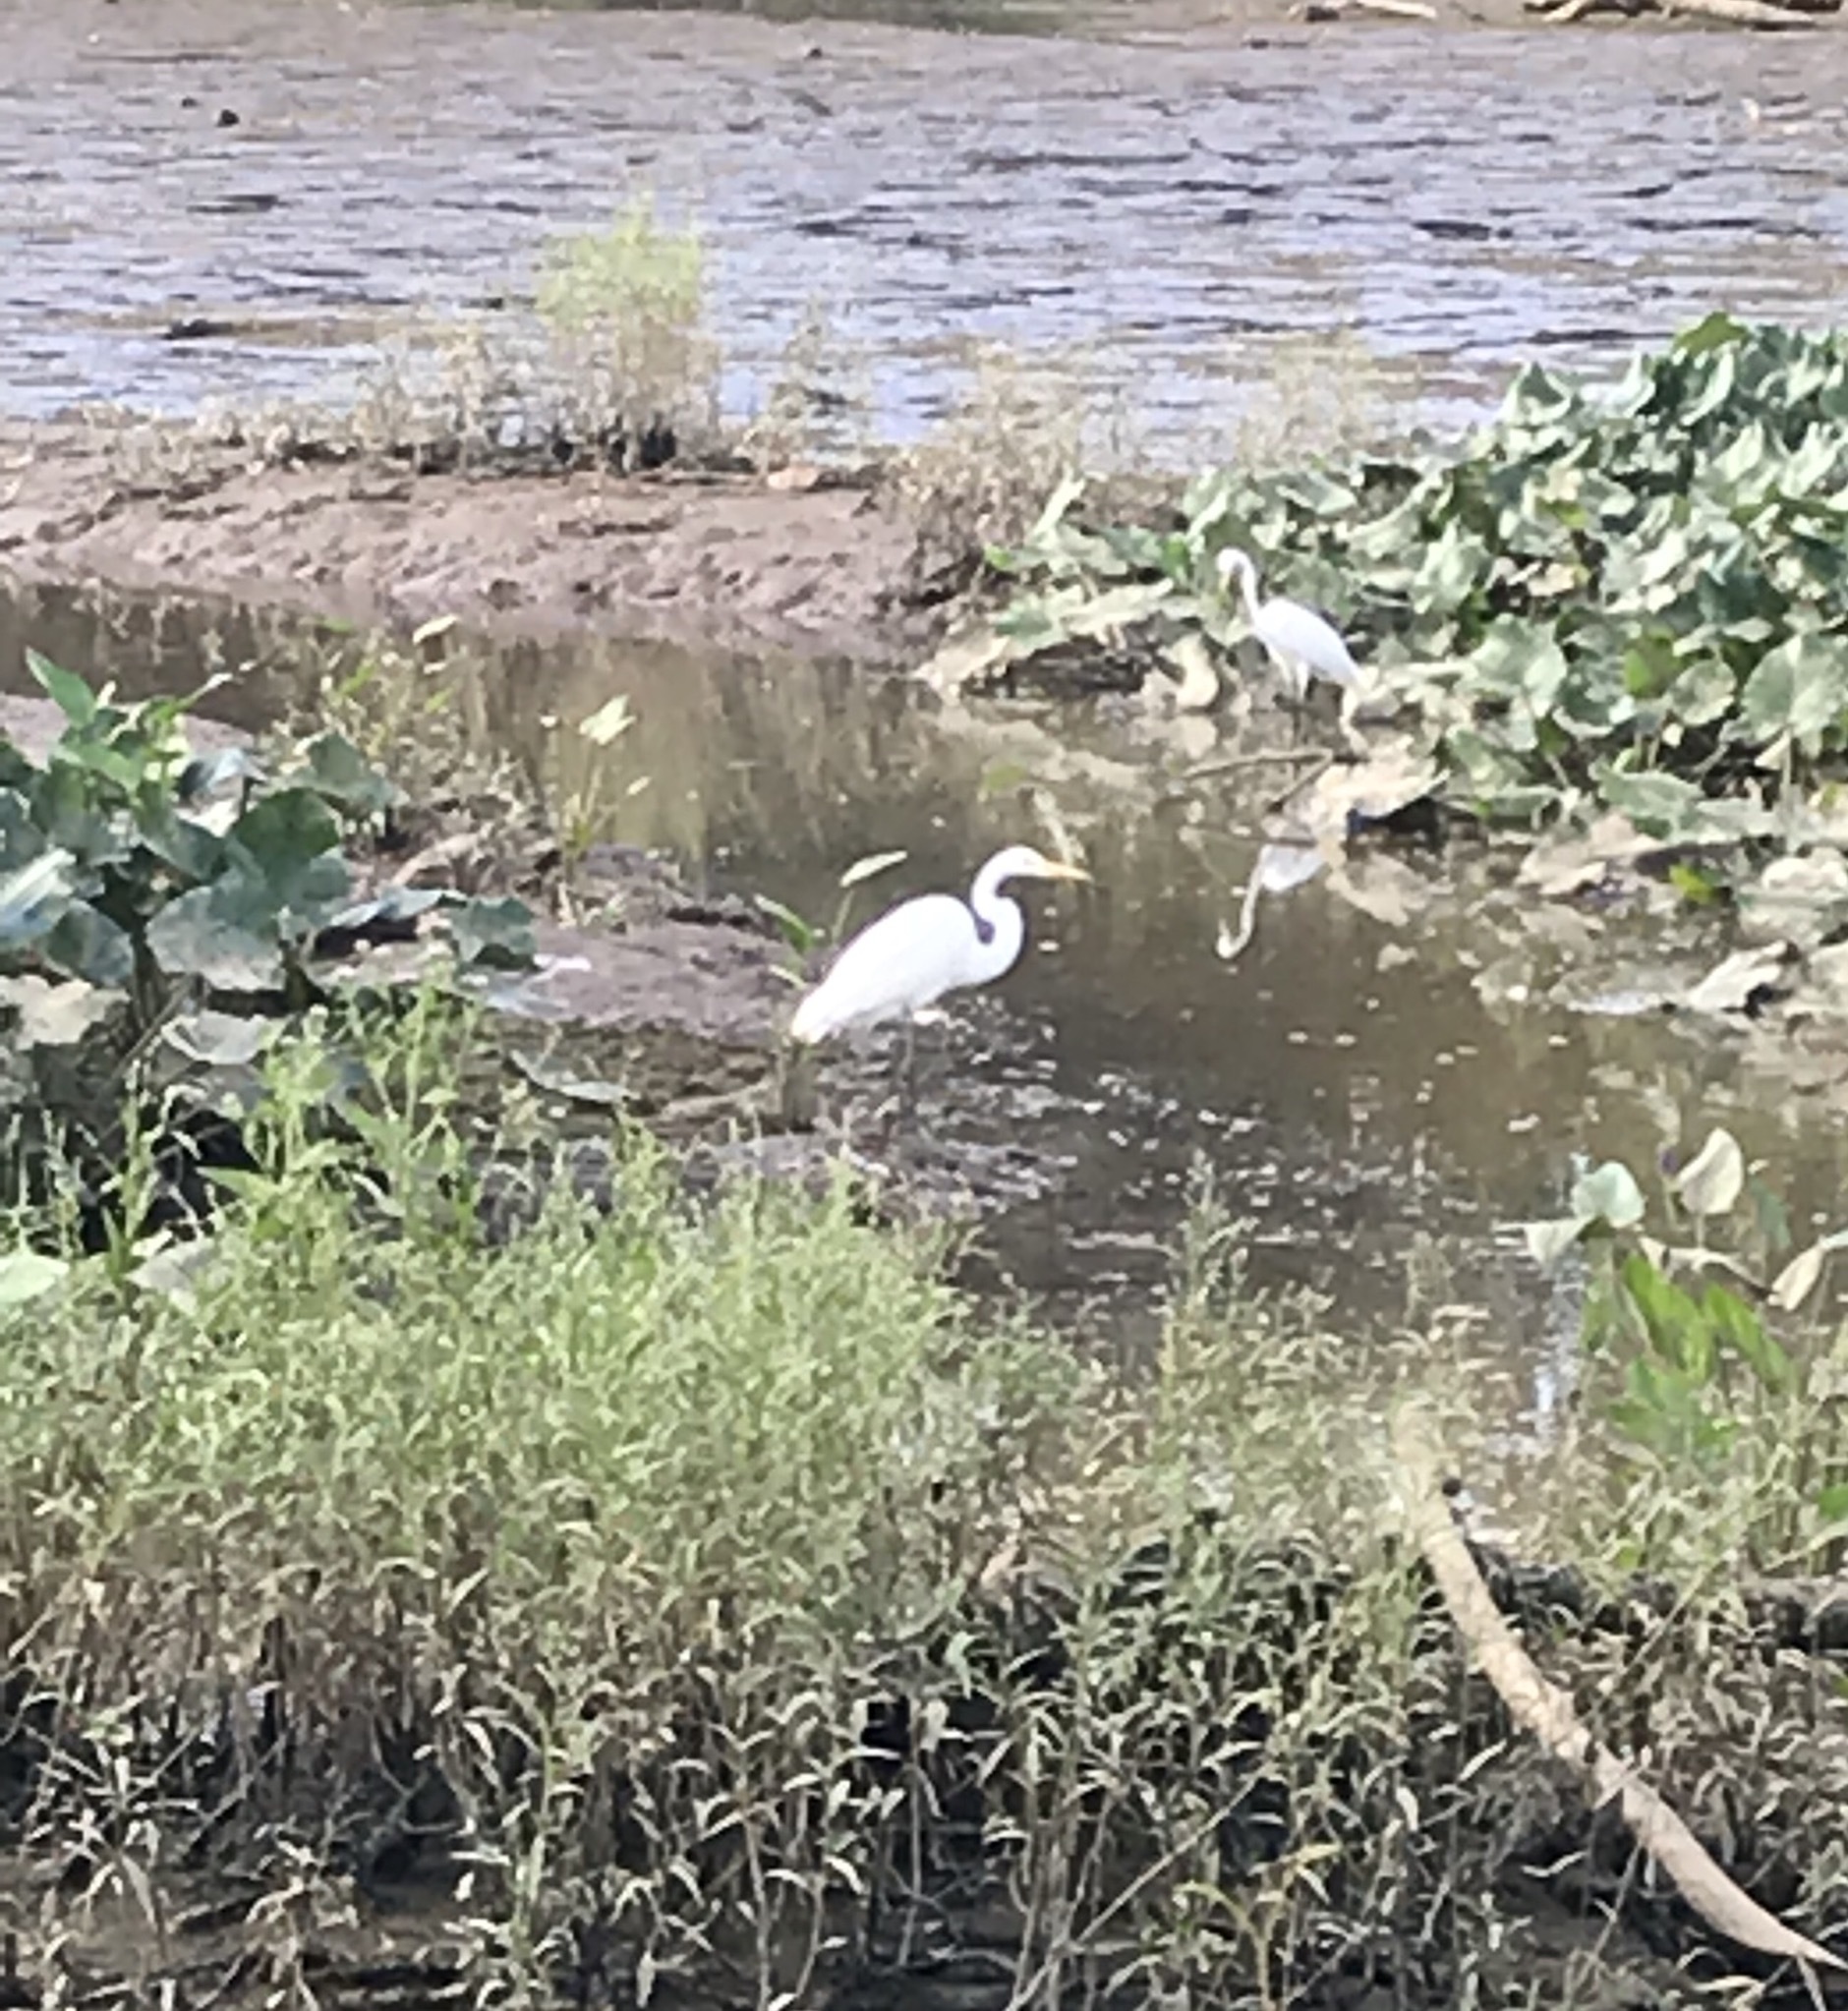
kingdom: Animalia
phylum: Chordata
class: Aves
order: Pelecaniformes
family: Ardeidae
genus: Ardea
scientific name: Ardea alba
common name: Great egret
